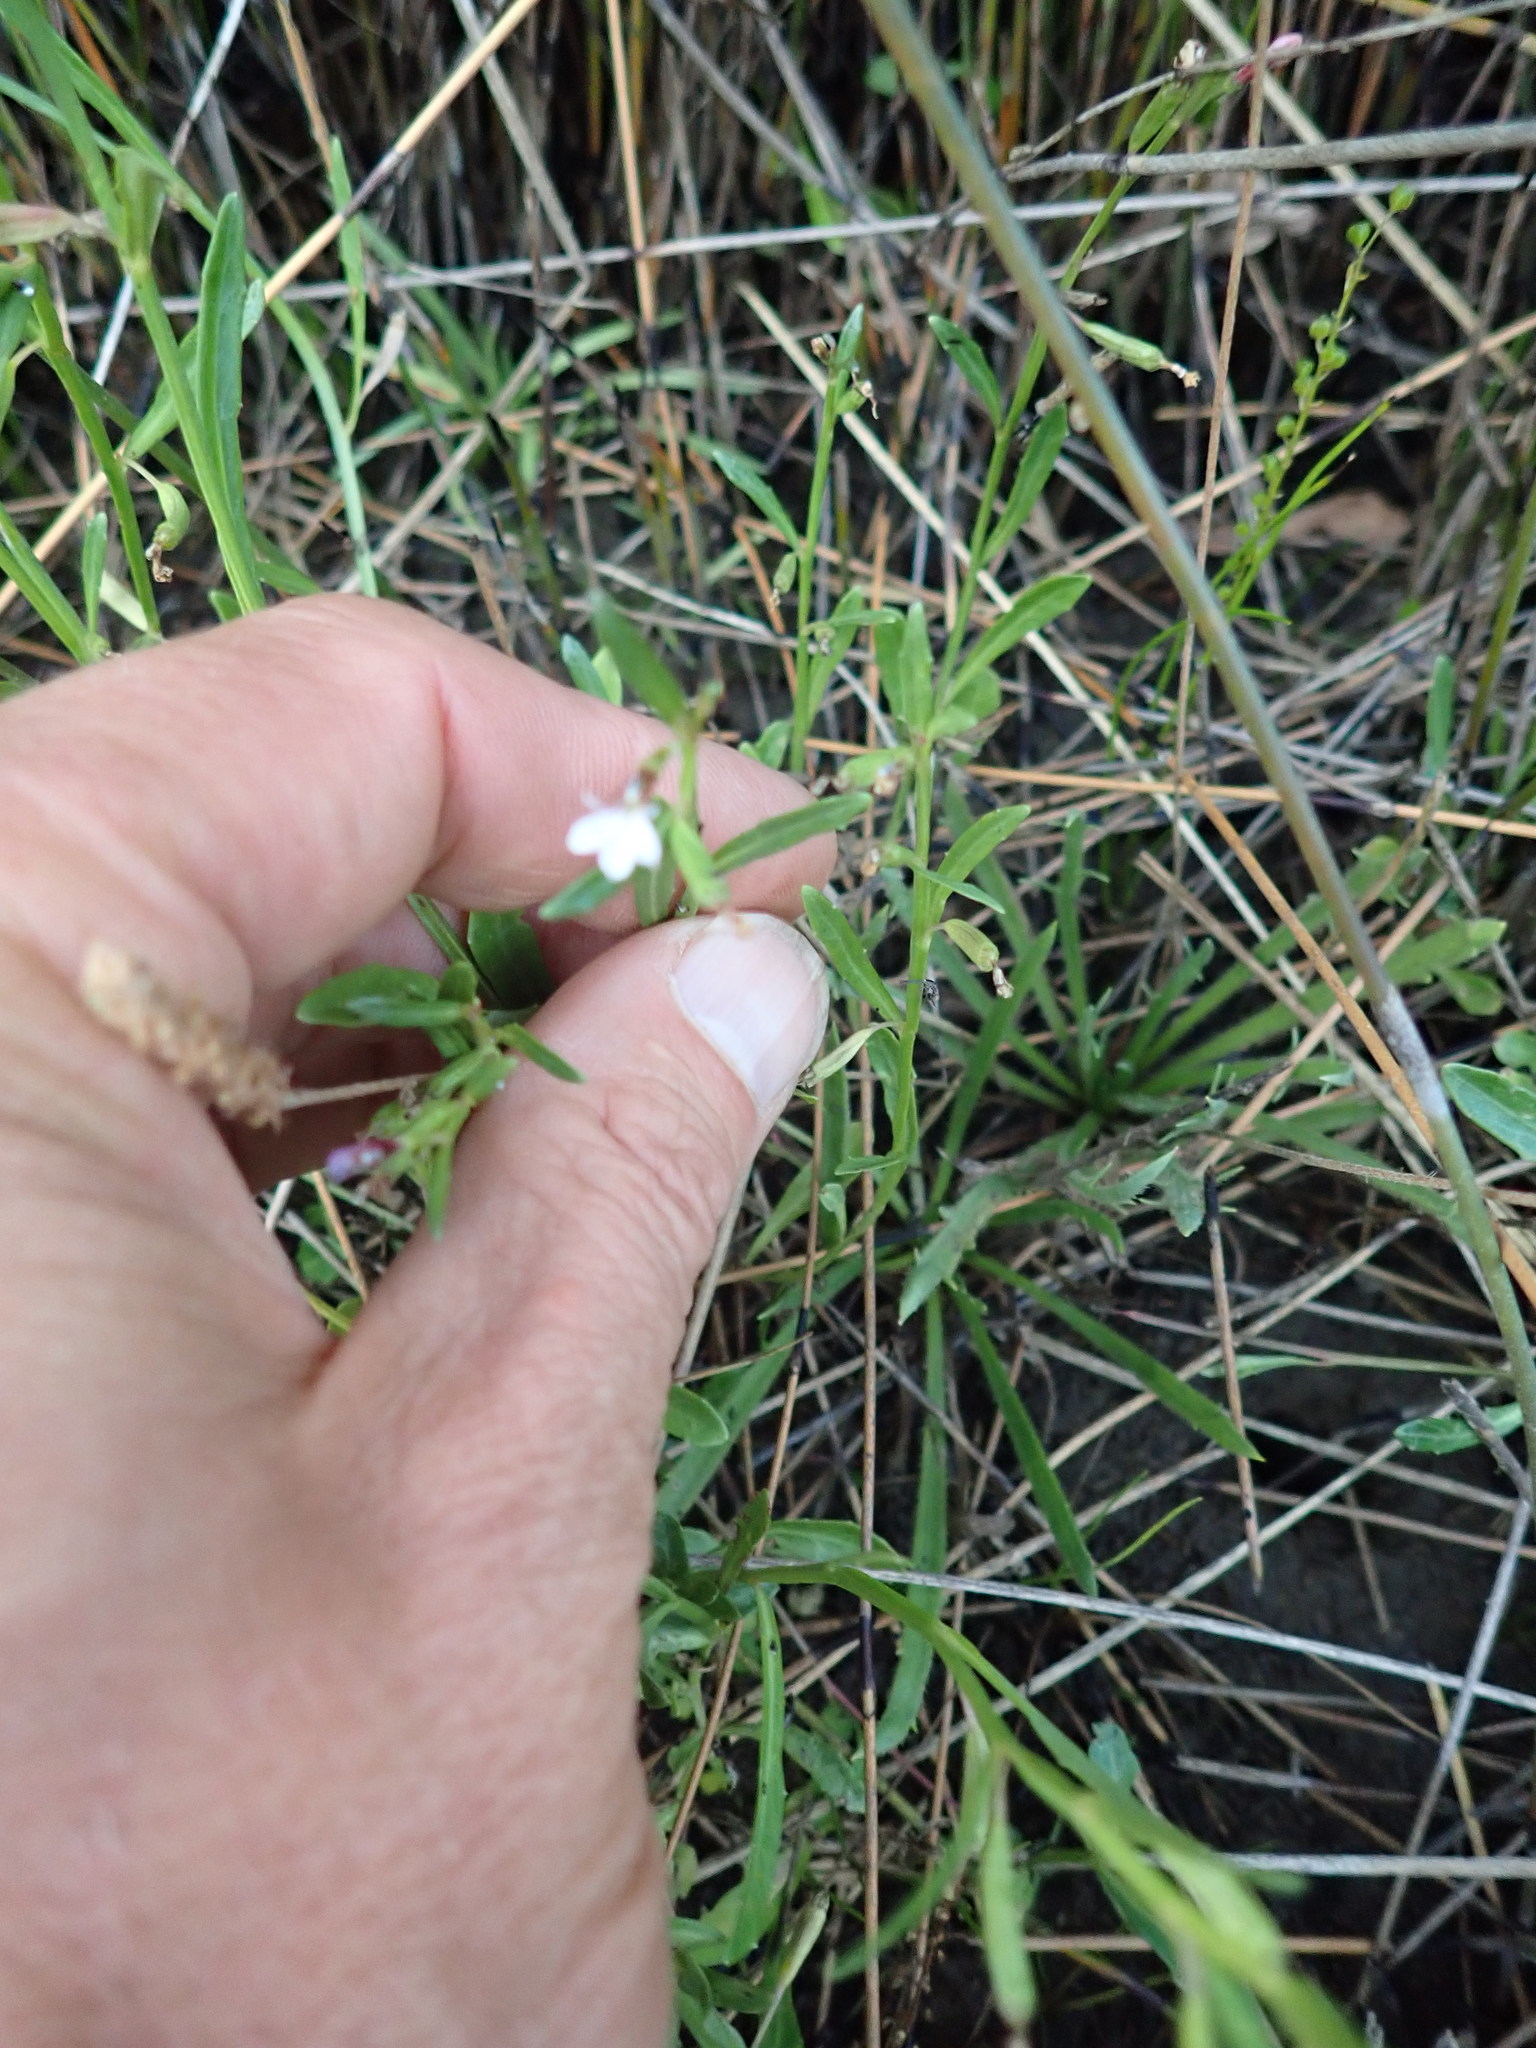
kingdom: Plantae
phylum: Tracheophyta
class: Magnoliopsida
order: Asterales
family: Campanulaceae
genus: Lobelia
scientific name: Lobelia anceps
